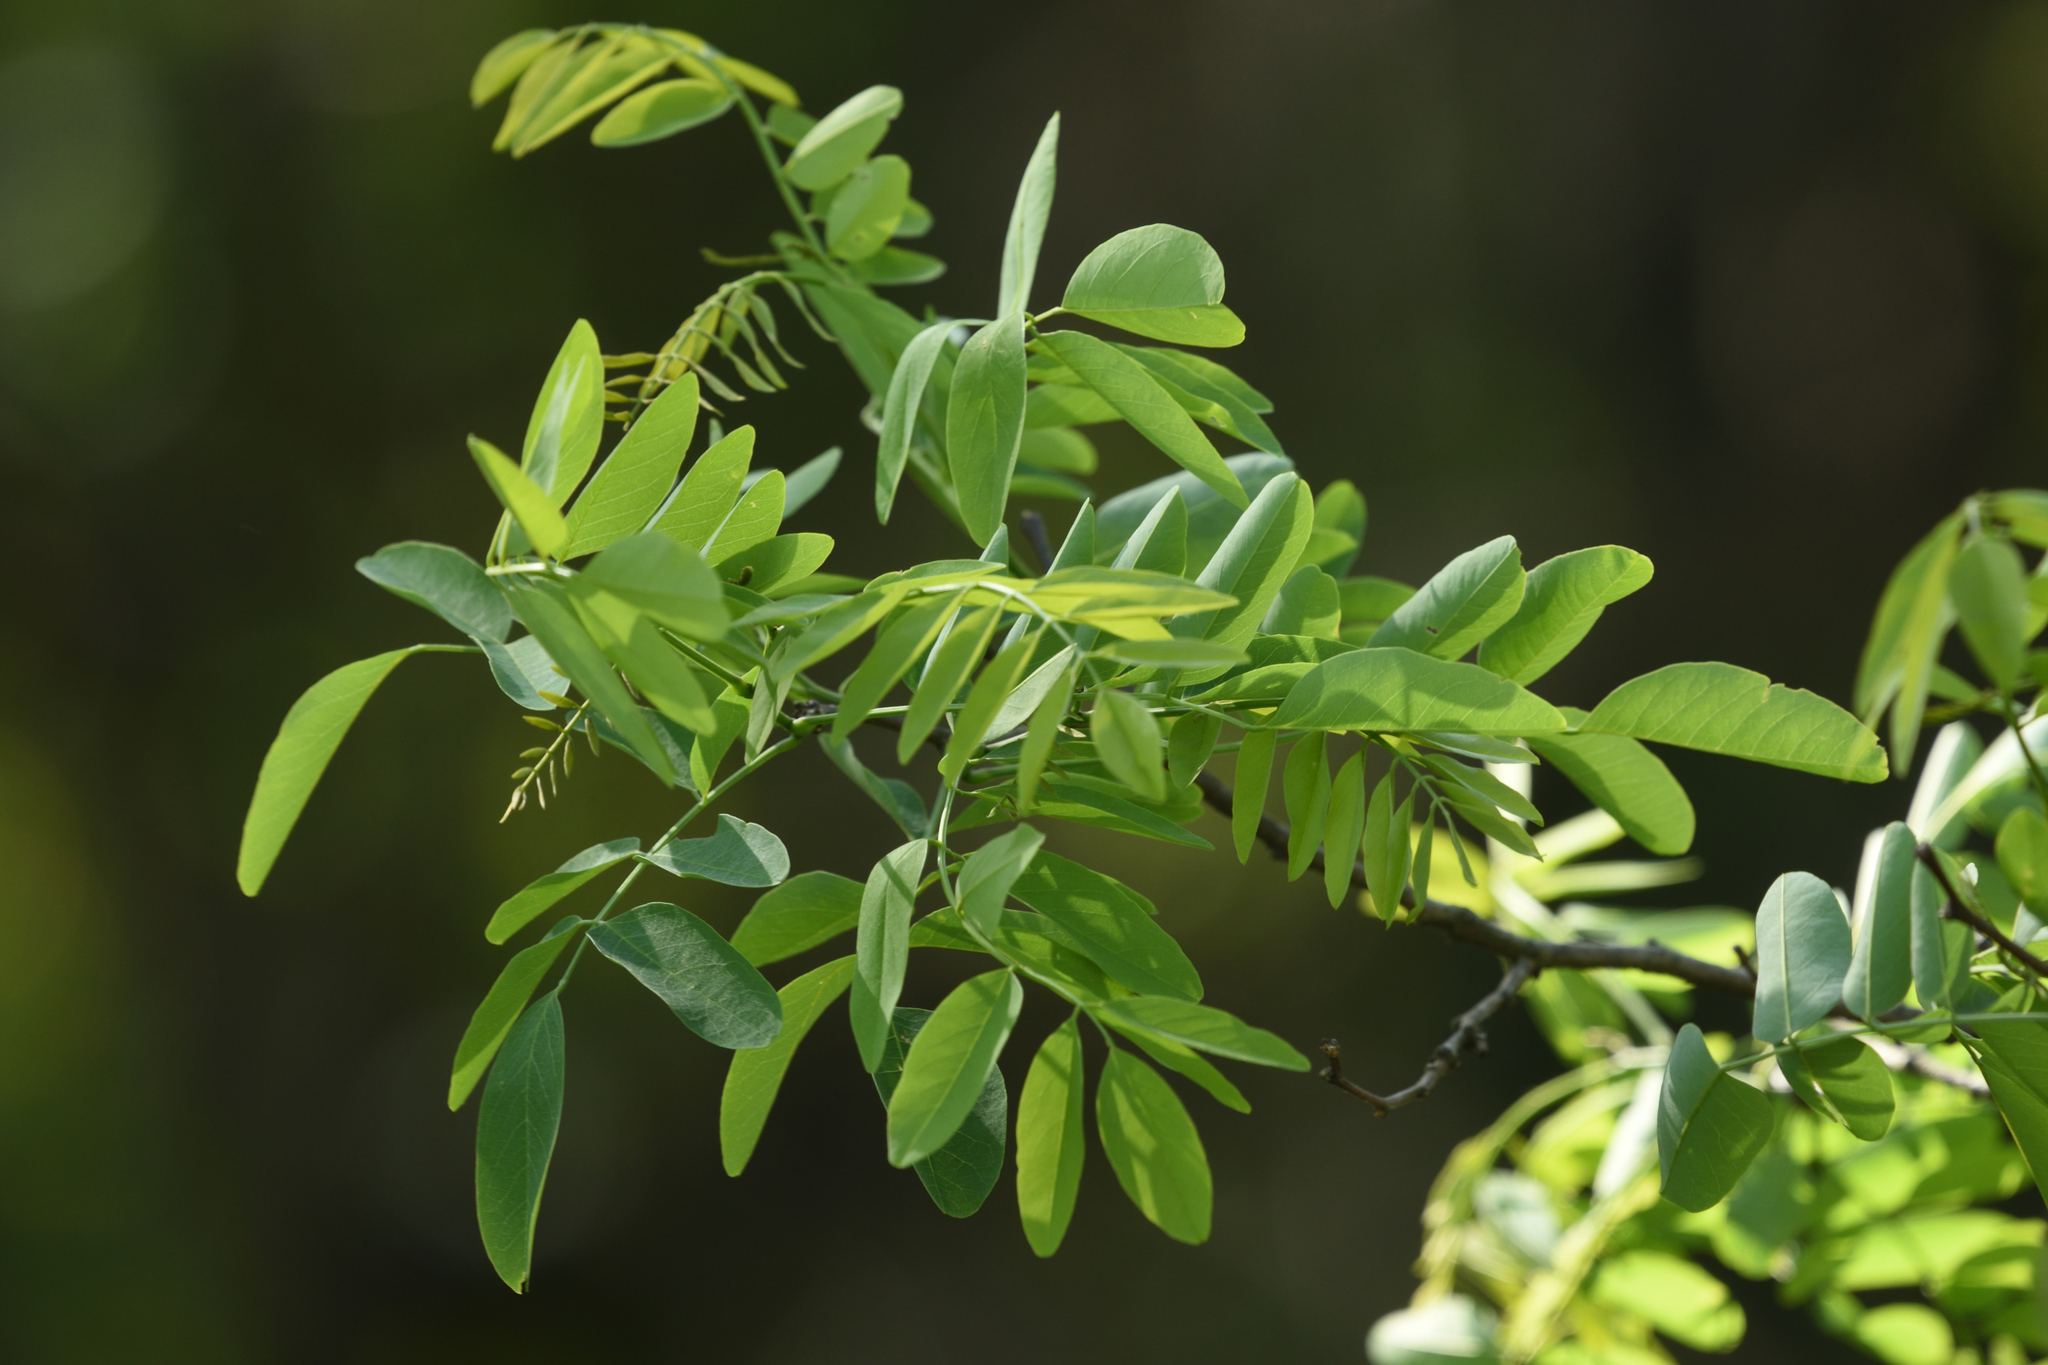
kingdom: Plantae
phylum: Tracheophyta
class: Magnoliopsida
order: Fabales
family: Fabaceae
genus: Robinia
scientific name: Robinia pseudoacacia
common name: Black locust
